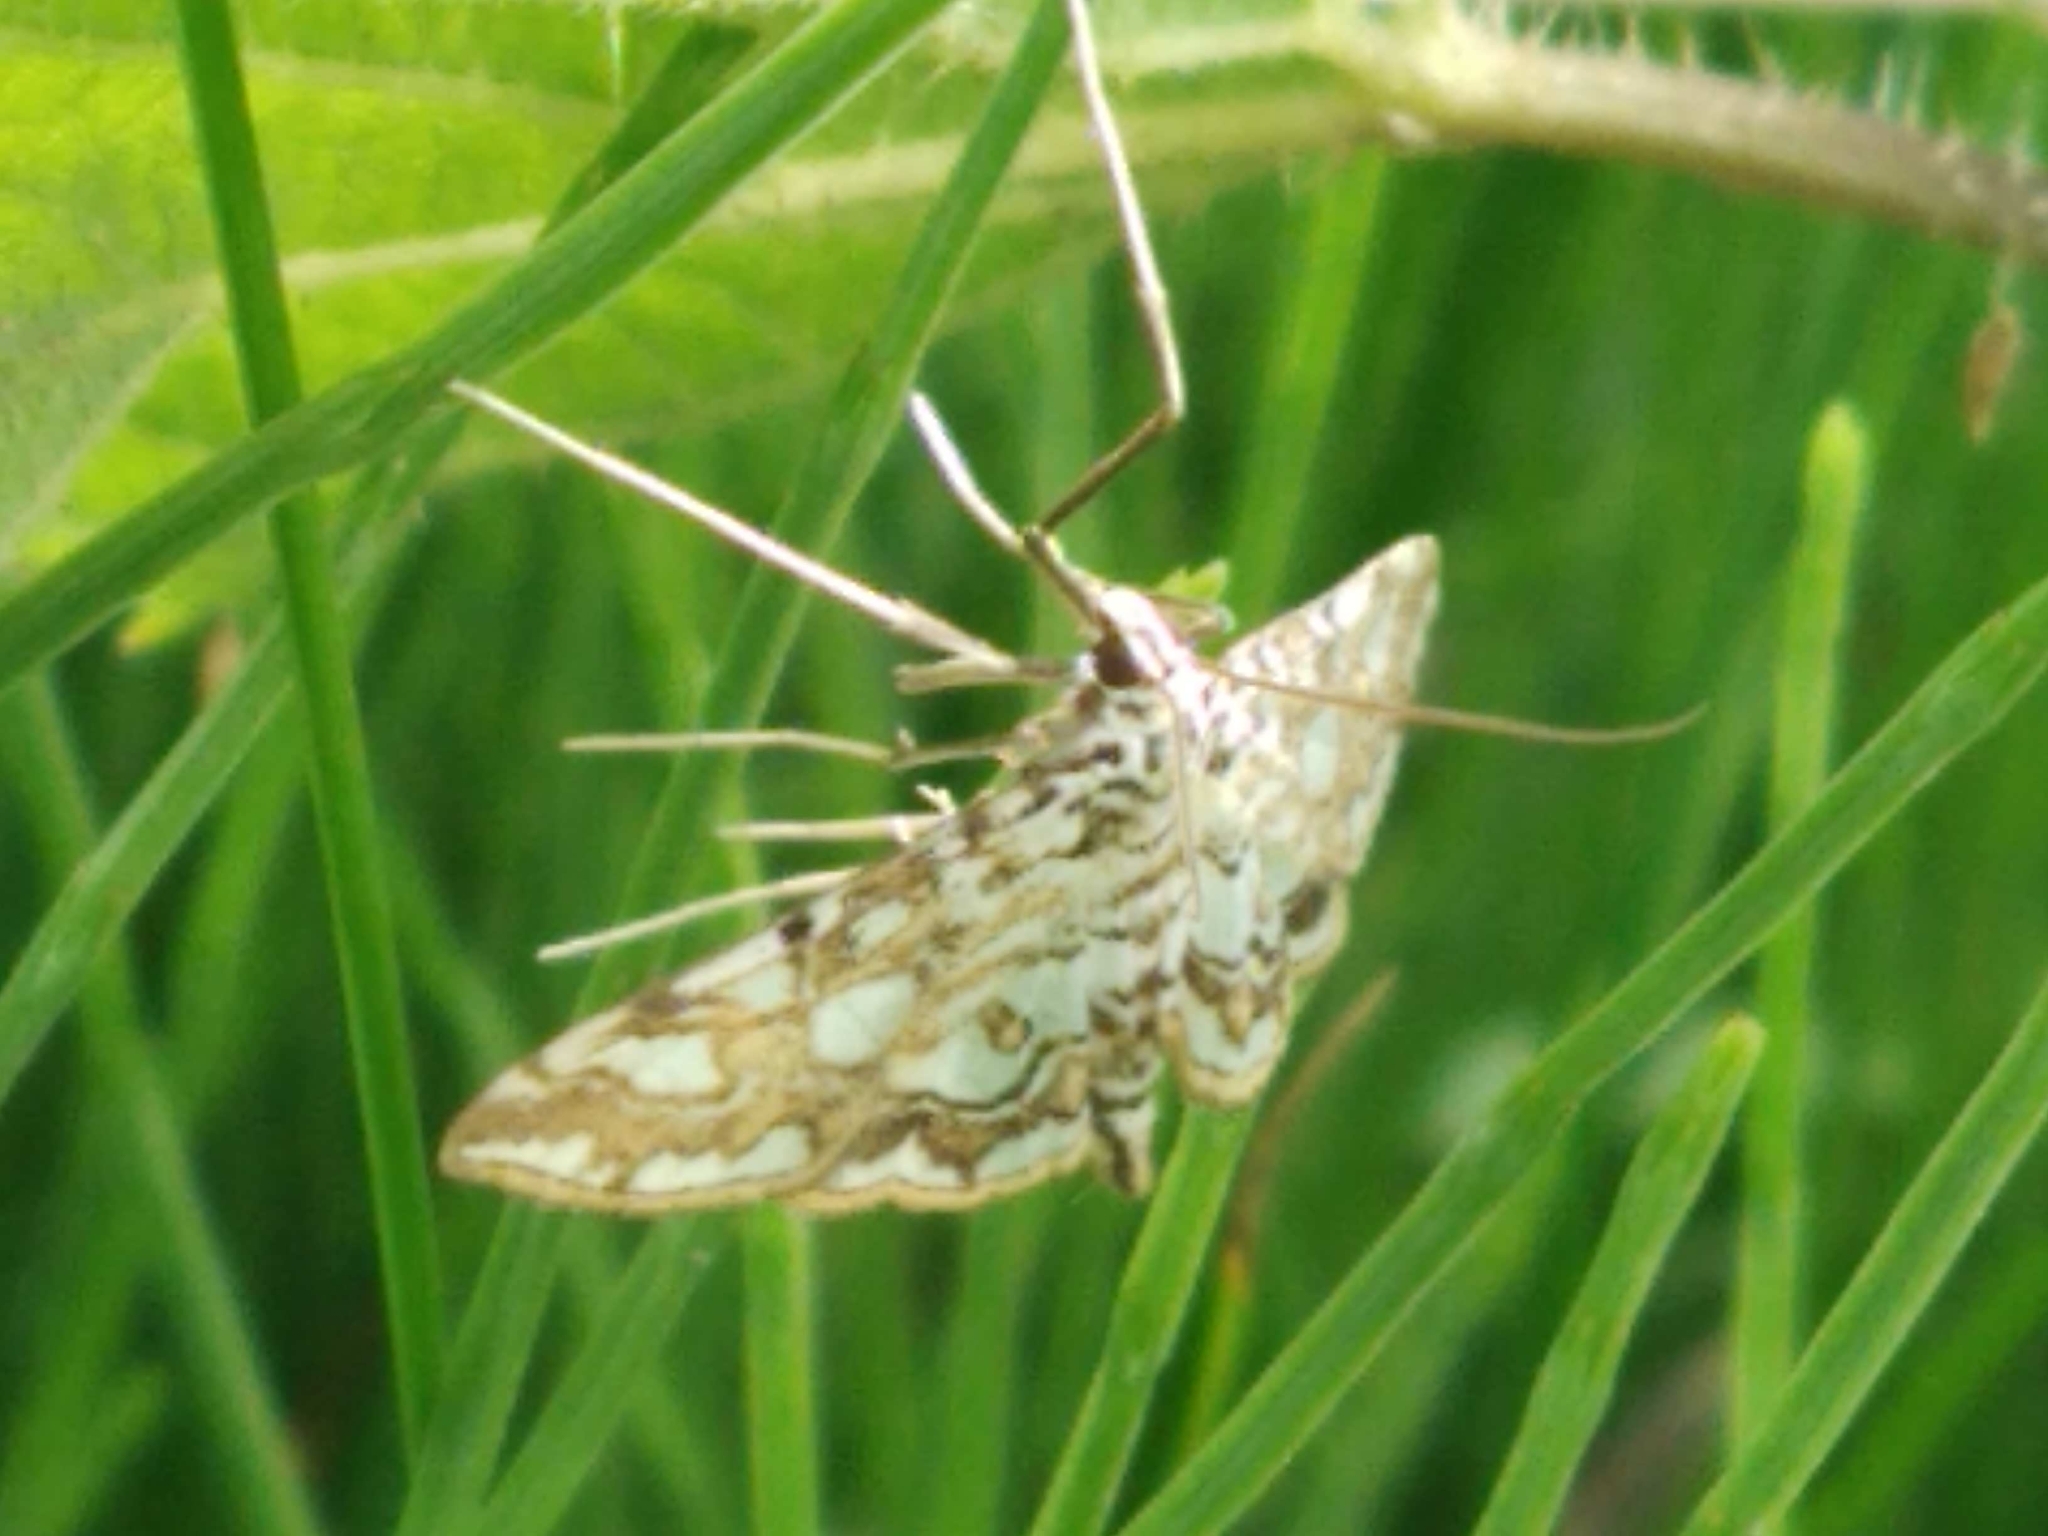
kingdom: Animalia
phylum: Arthropoda
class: Insecta
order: Lepidoptera
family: Crambidae
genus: Elophila
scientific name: Elophila nymphaeata
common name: Brown china-mark
